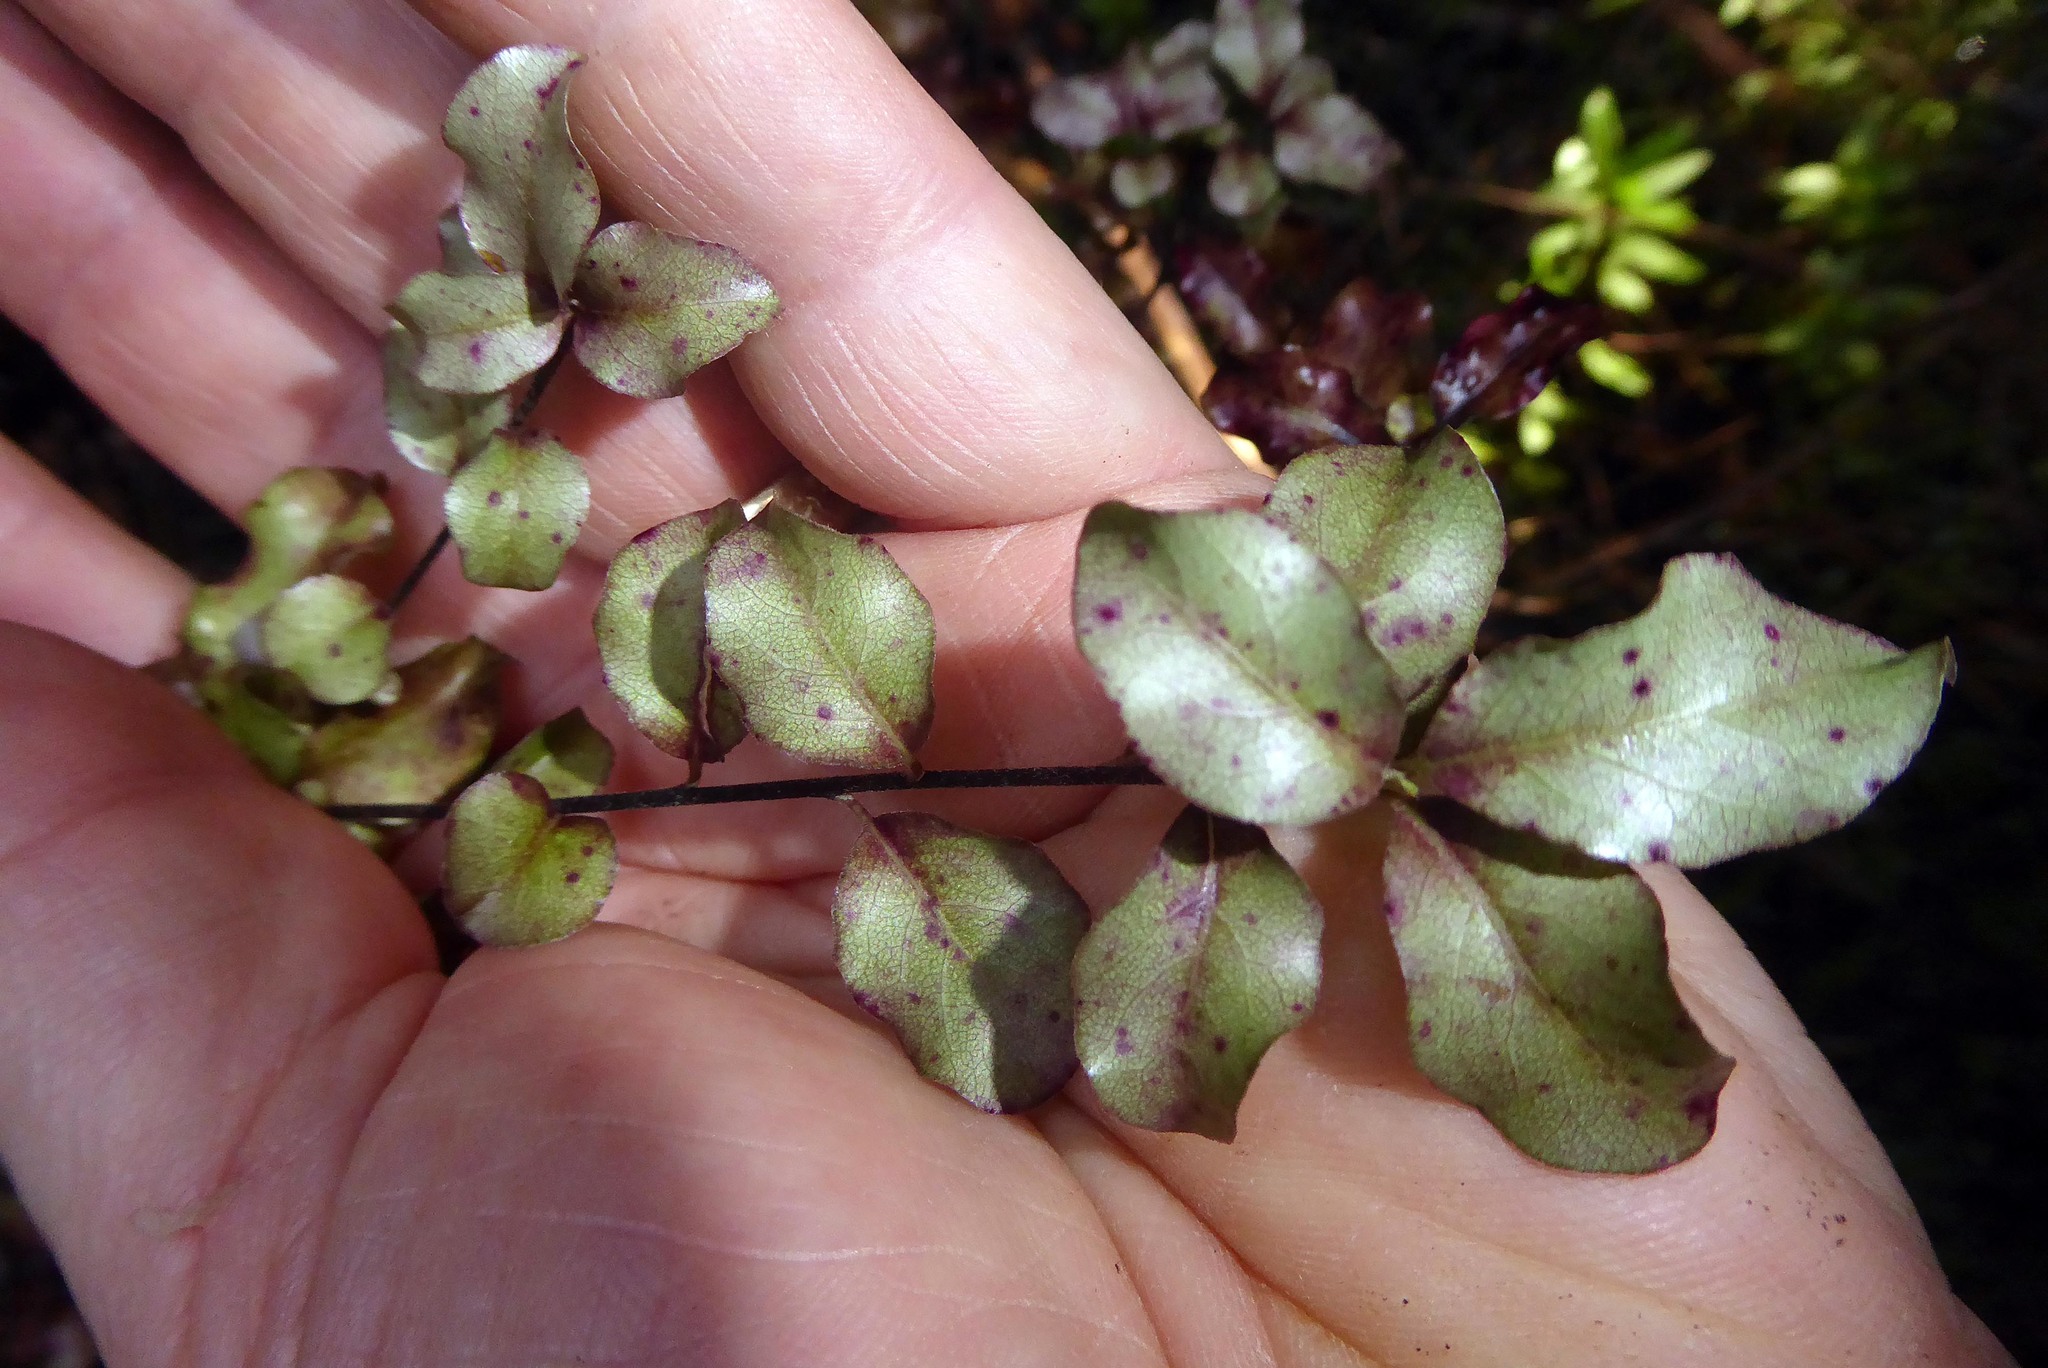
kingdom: Plantae
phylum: Tracheophyta
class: Magnoliopsida
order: Apiales
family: Pittosporaceae
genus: Pittosporum
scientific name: Pittosporum tenuifolium
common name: Kohuhu
